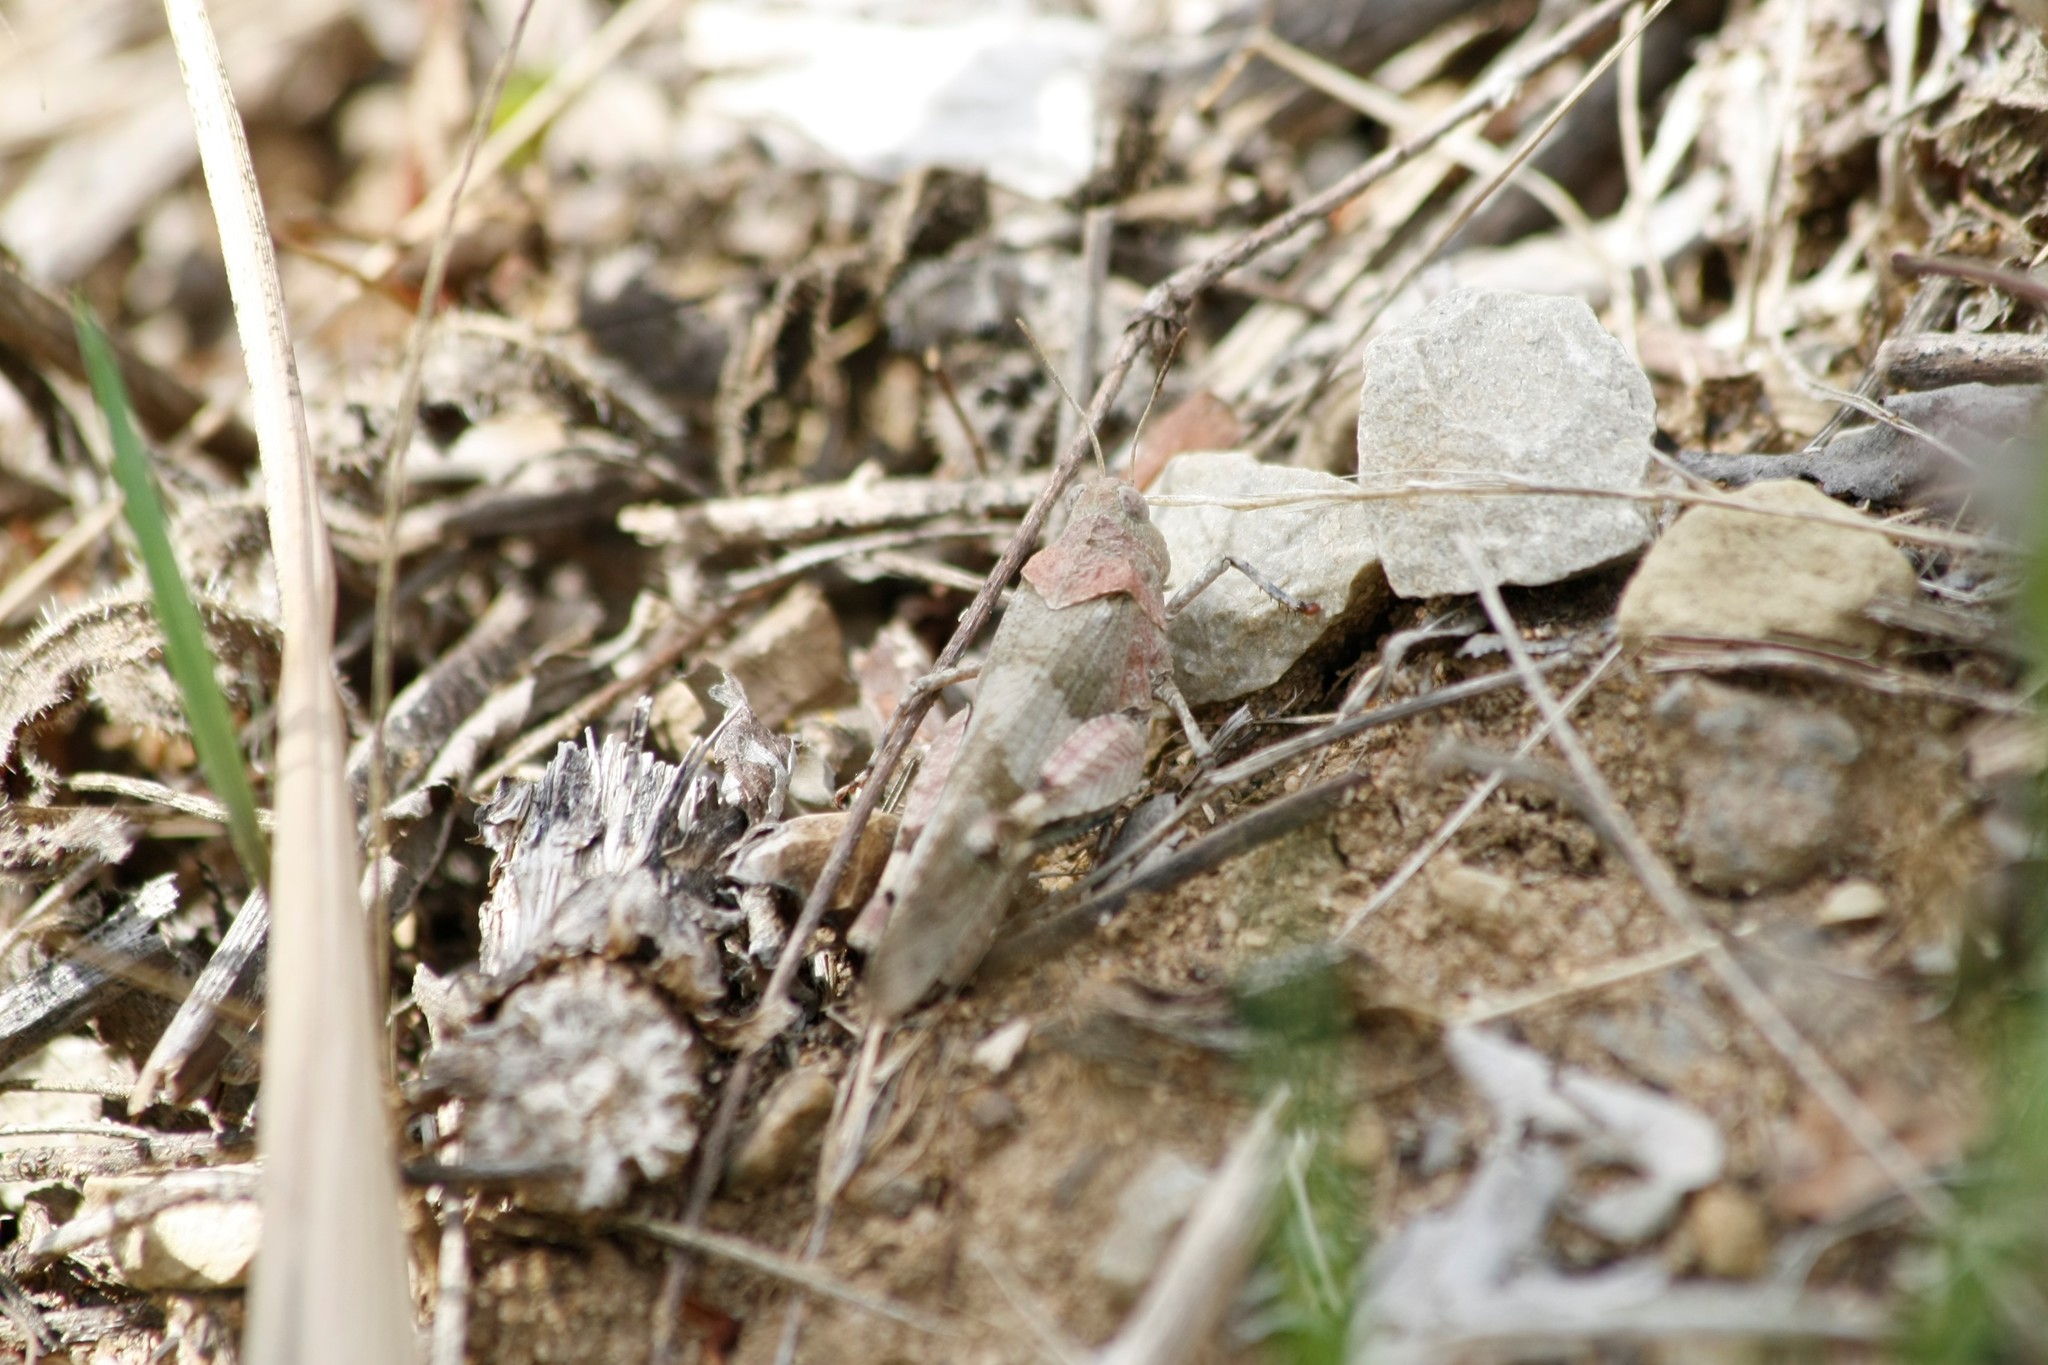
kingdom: Animalia
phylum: Arthropoda
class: Insecta
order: Orthoptera
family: Acrididae
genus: Oedipoda
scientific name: Oedipoda caerulescens
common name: Blue-winged grasshopper
